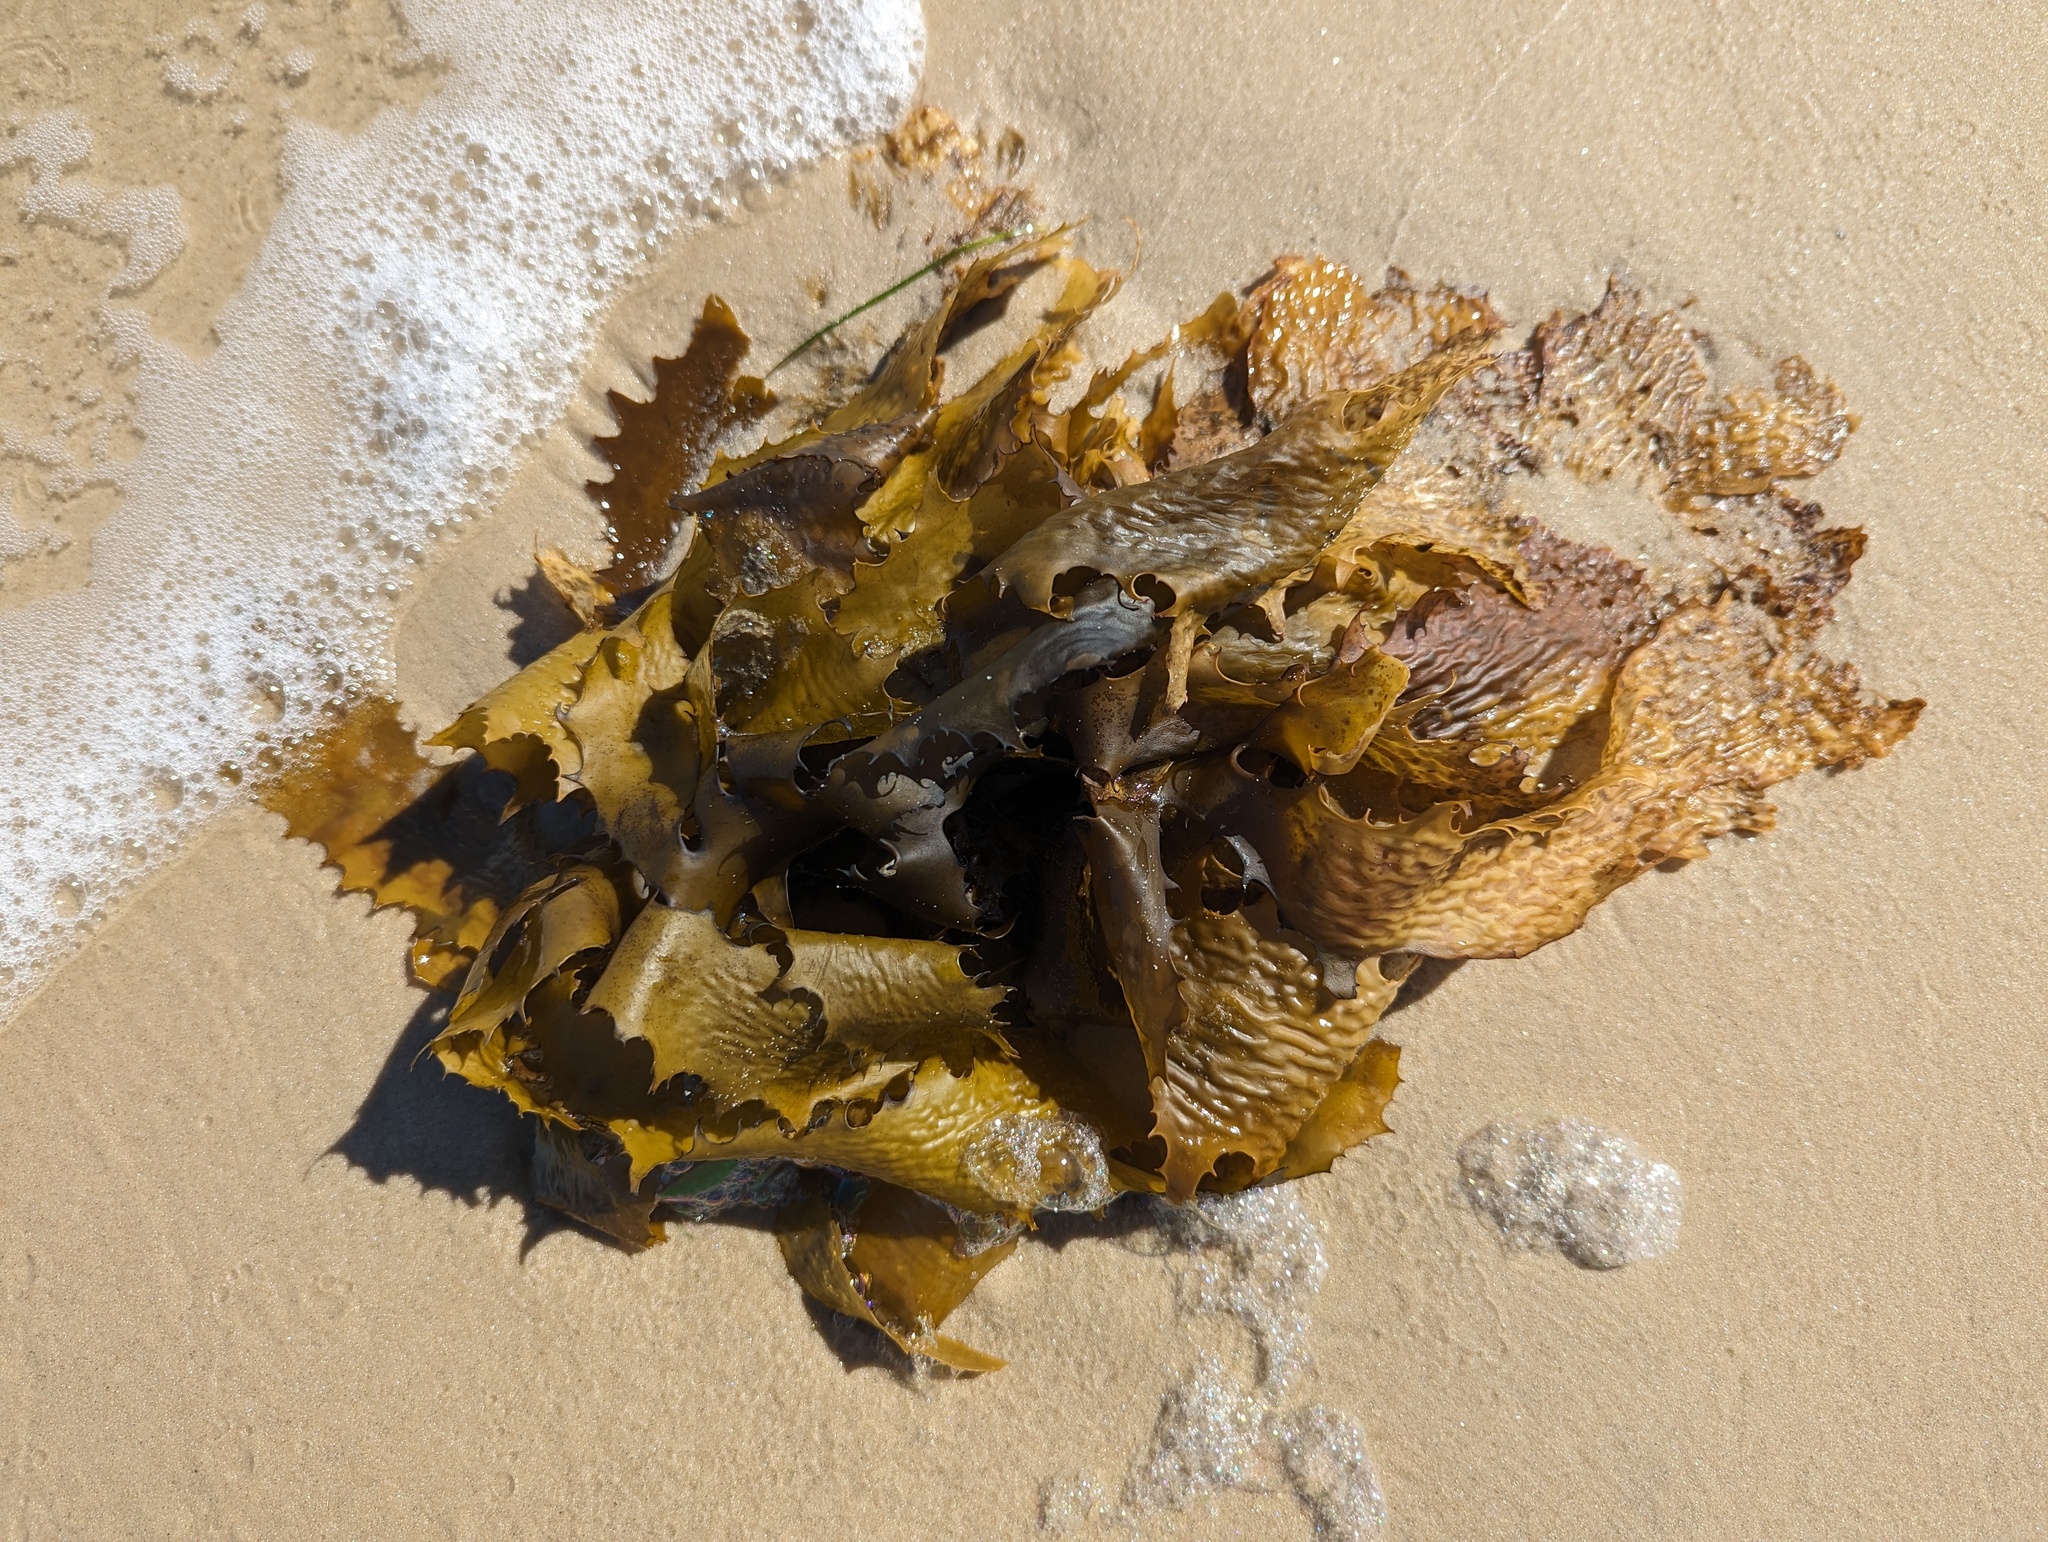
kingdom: Chromista
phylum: Ochrophyta
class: Phaeophyceae
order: Laminariales
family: Lessoniaceae
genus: Ecklonia
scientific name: Ecklonia radiata
